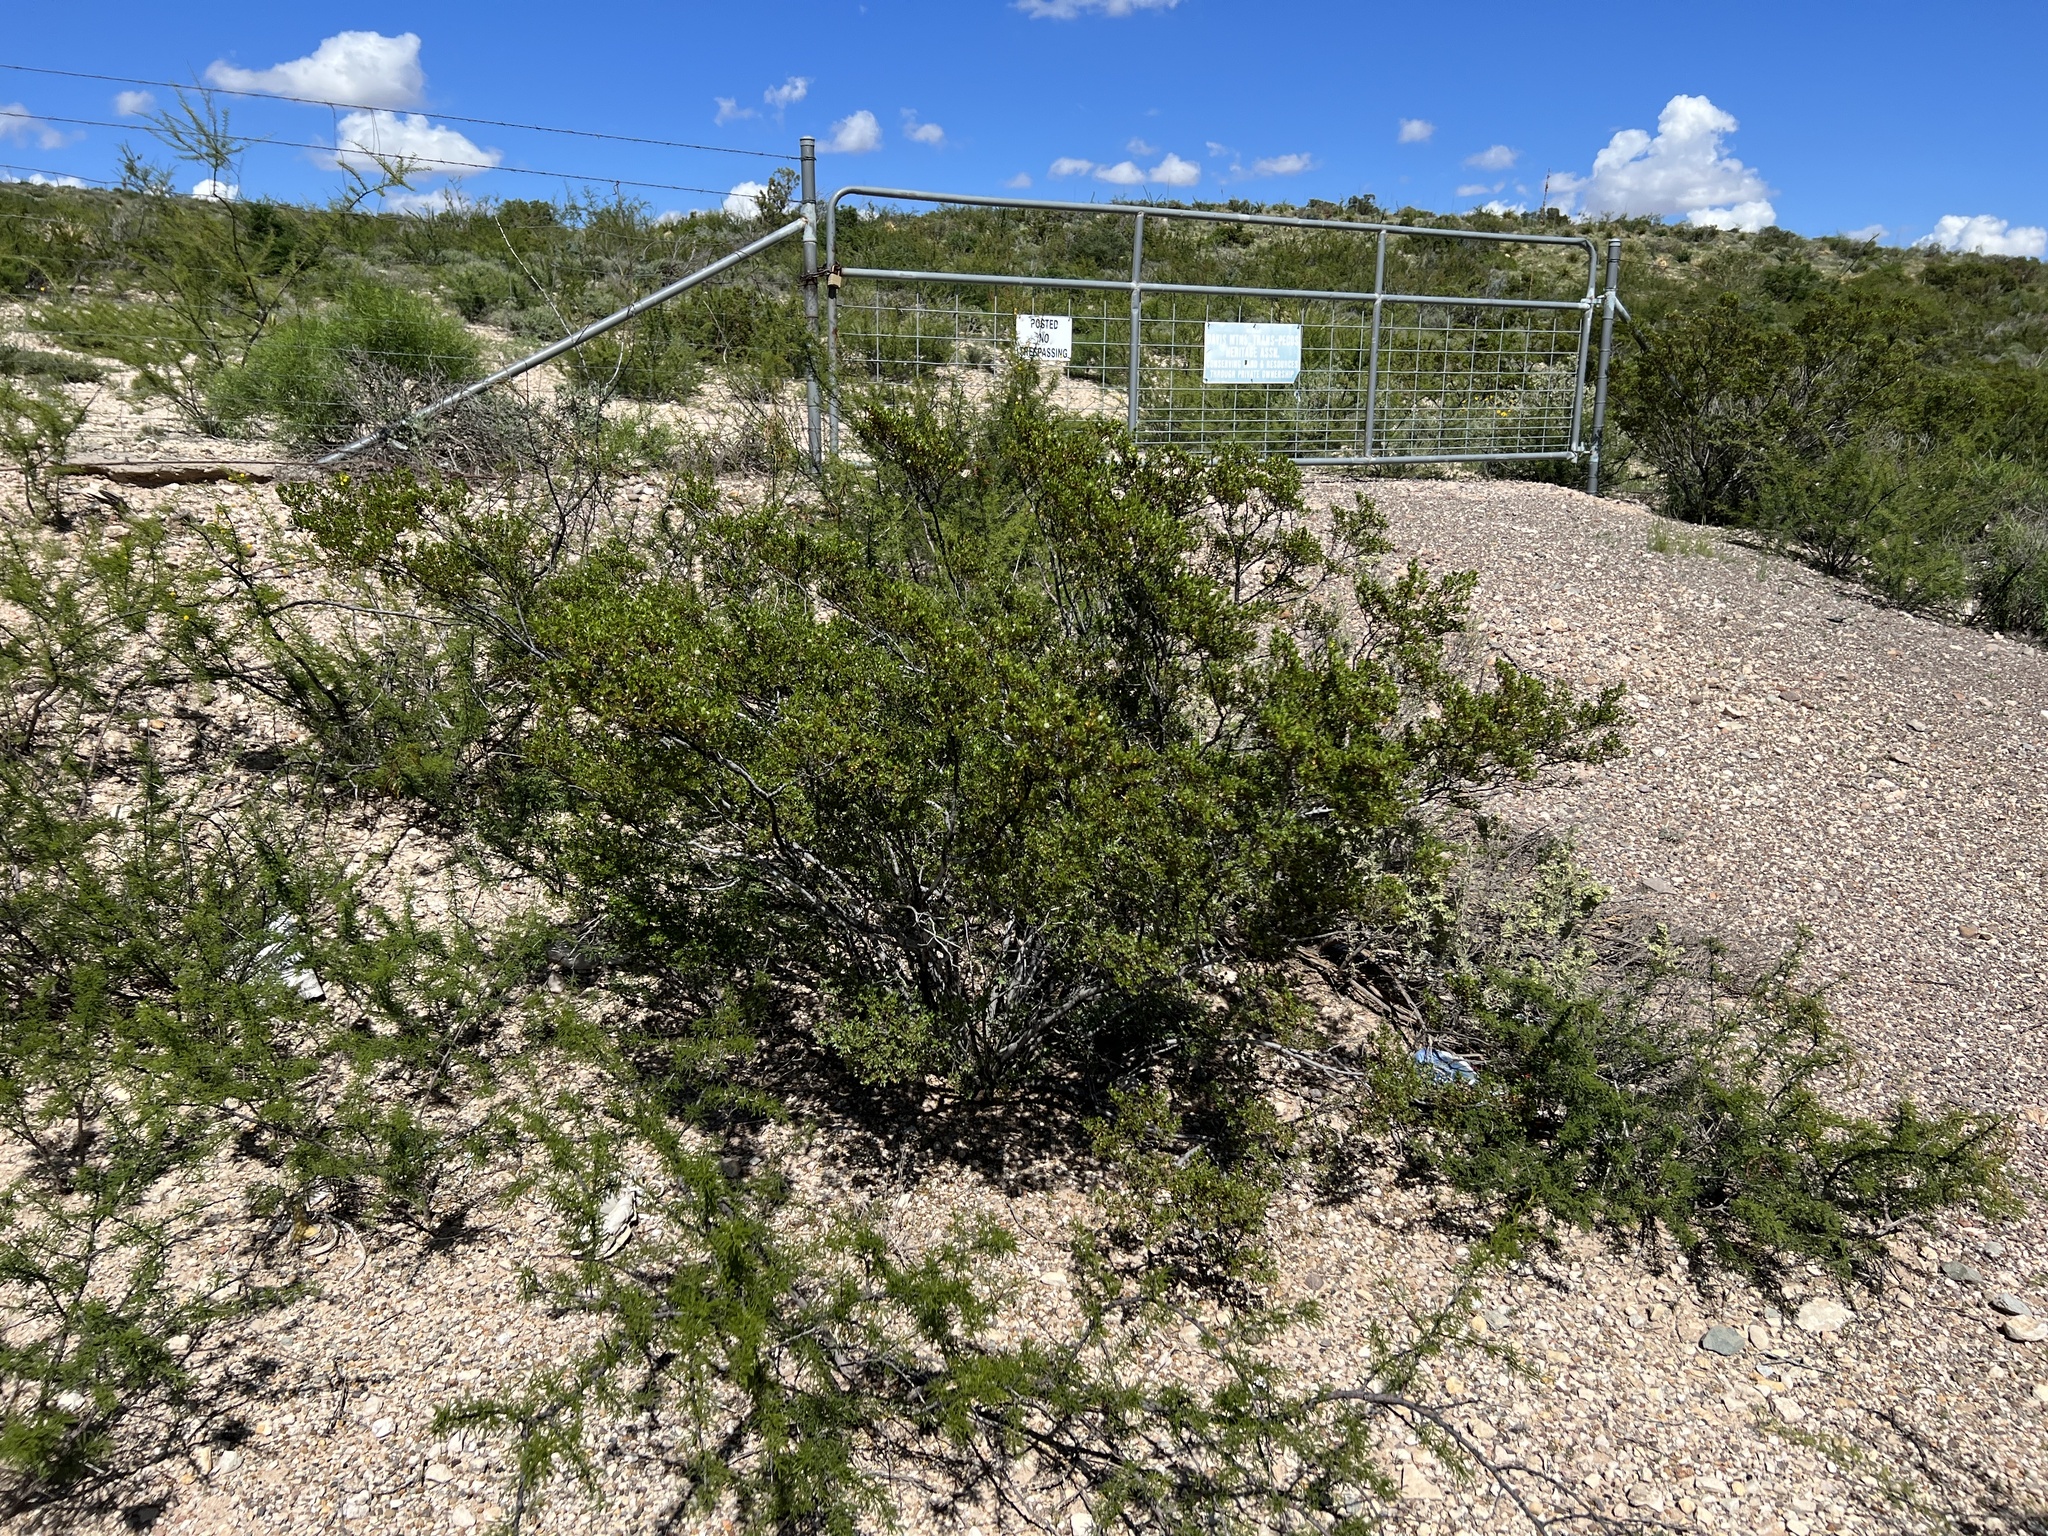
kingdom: Plantae
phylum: Tracheophyta
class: Magnoliopsida
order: Zygophyllales
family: Zygophyllaceae
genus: Larrea
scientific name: Larrea tridentata
